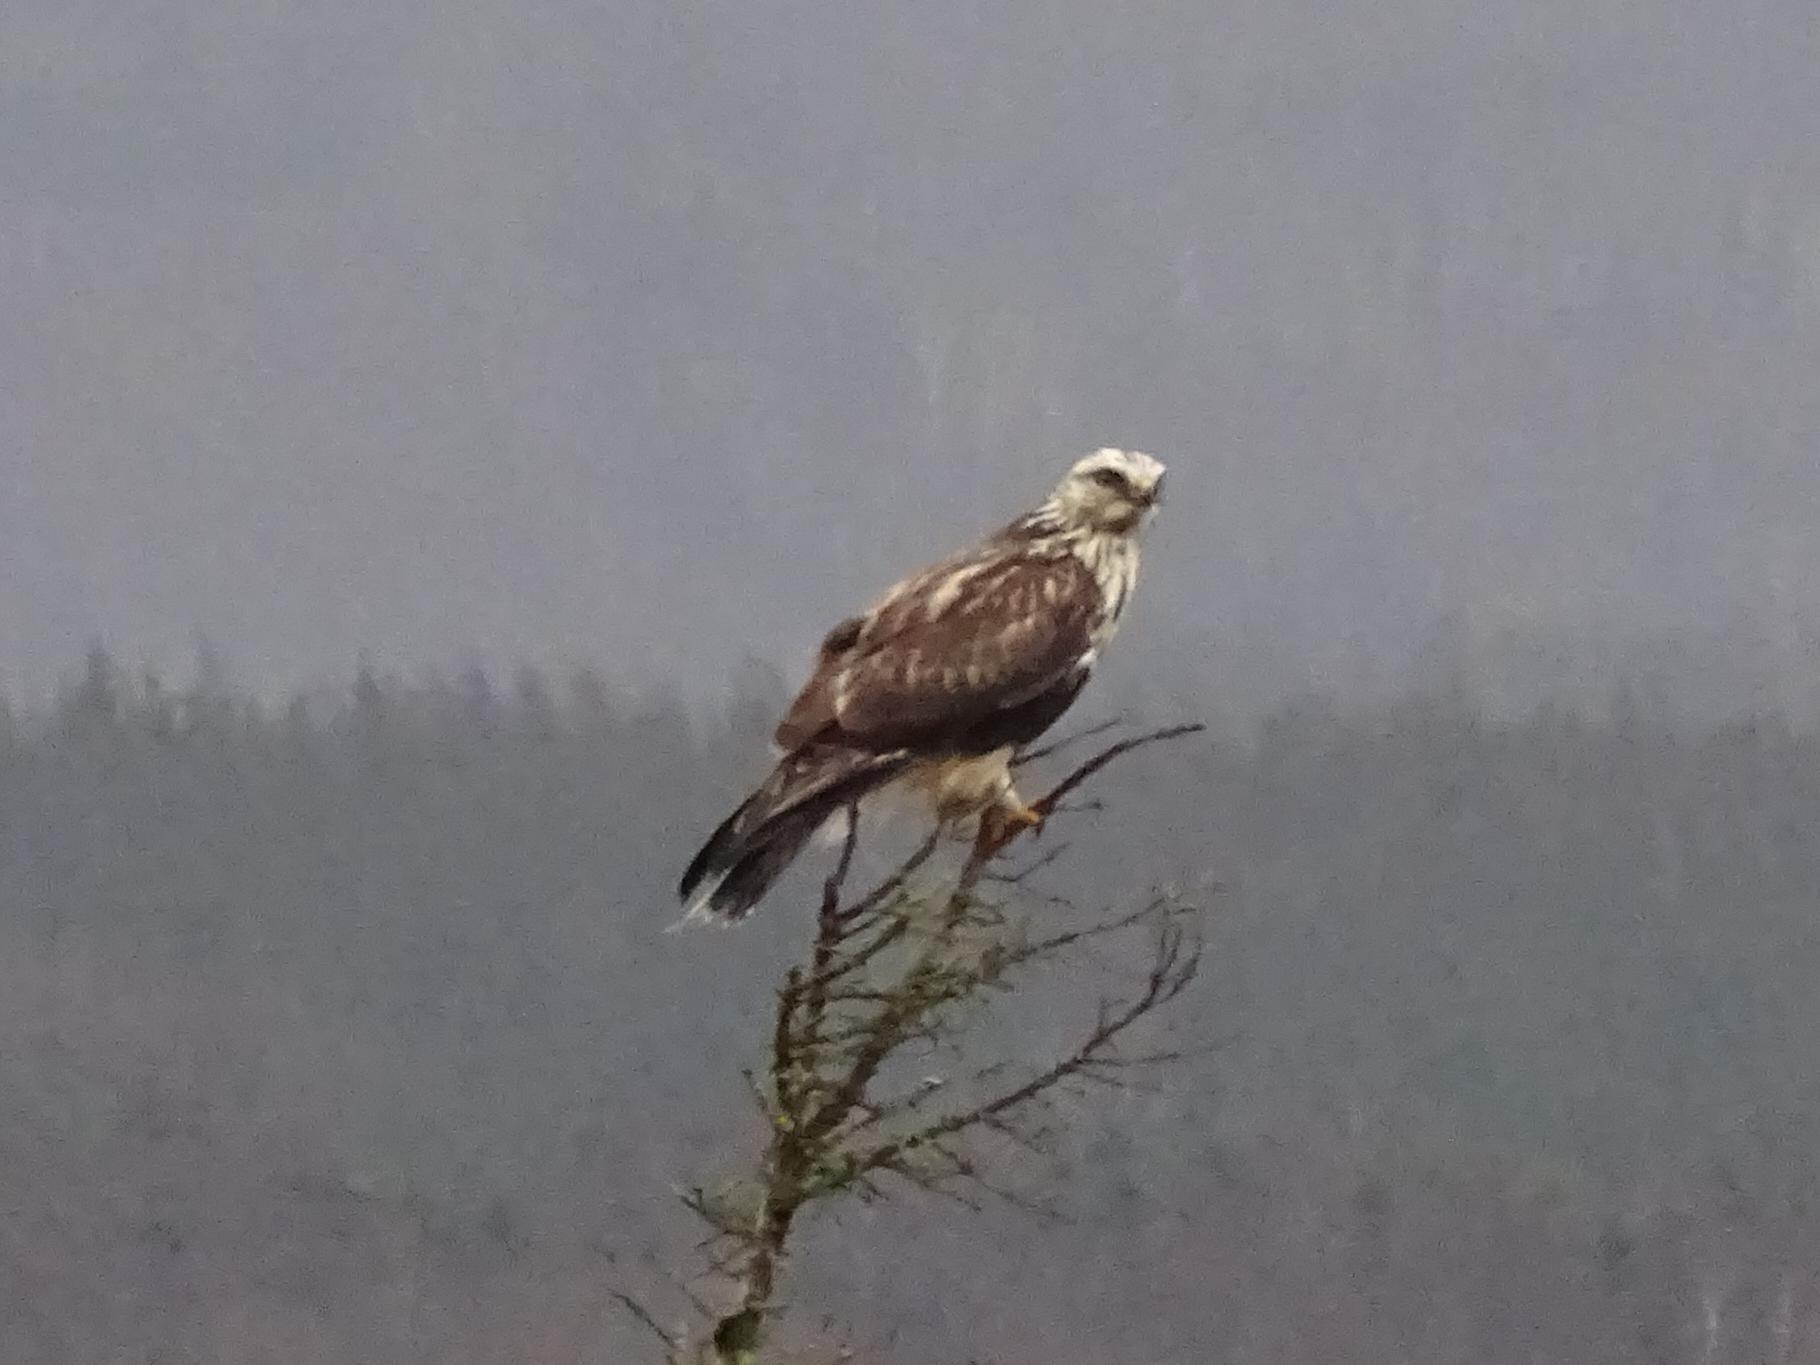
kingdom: Animalia
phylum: Chordata
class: Aves
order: Accipitriformes
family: Accipitridae
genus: Buteo
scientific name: Buteo lagopus
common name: Rough-legged buzzard
